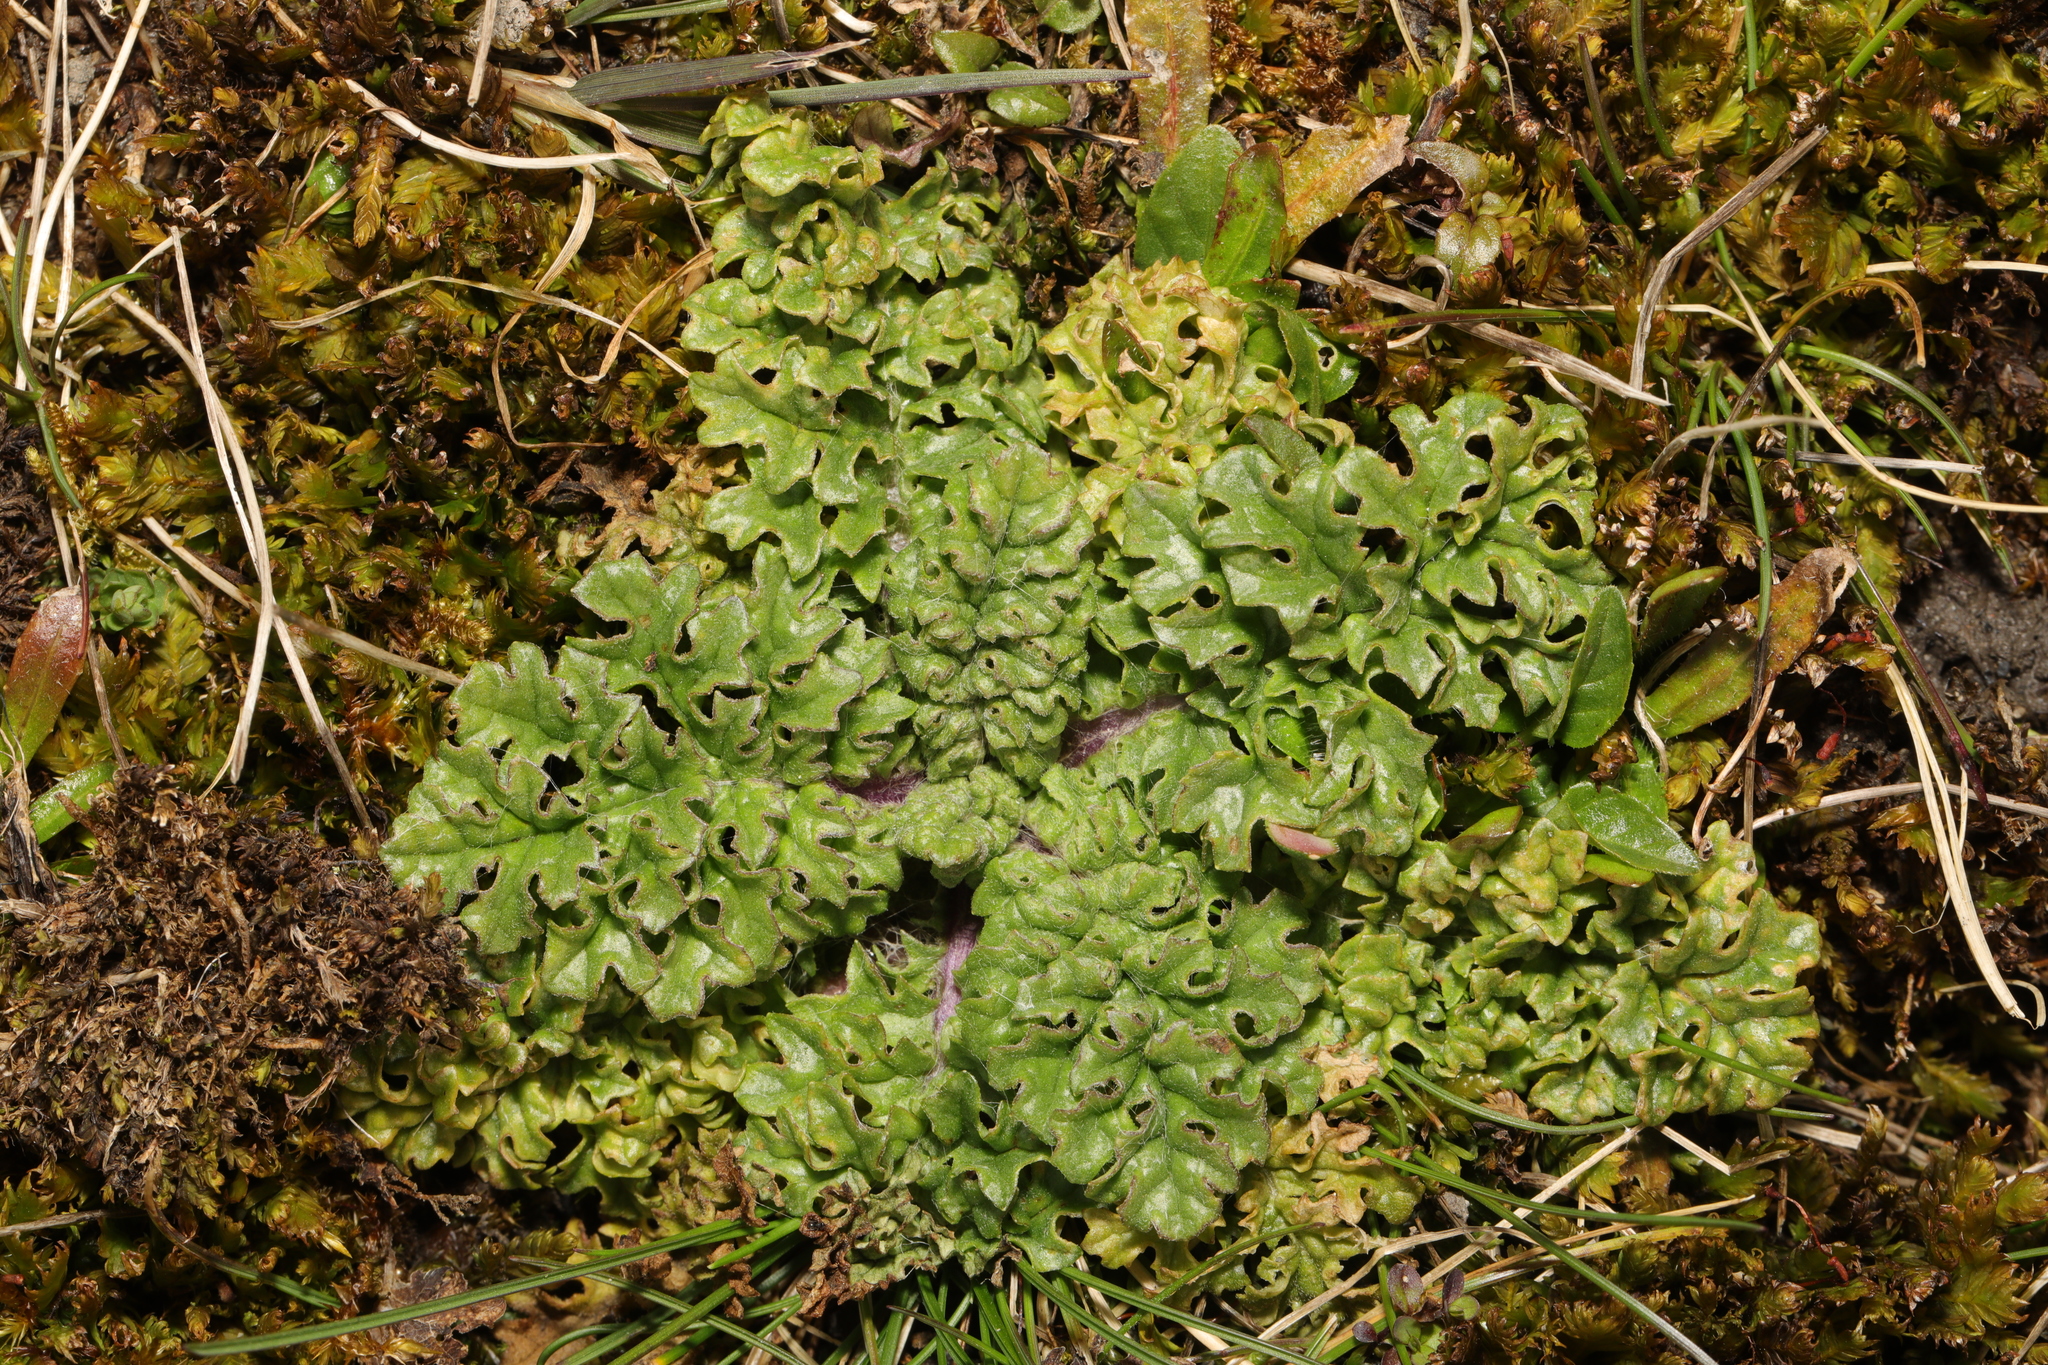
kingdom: Plantae
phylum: Tracheophyta
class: Magnoliopsida
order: Asterales
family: Asteraceae
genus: Jacobaea
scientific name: Jacobaea vulgaris
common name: Stinking willie
